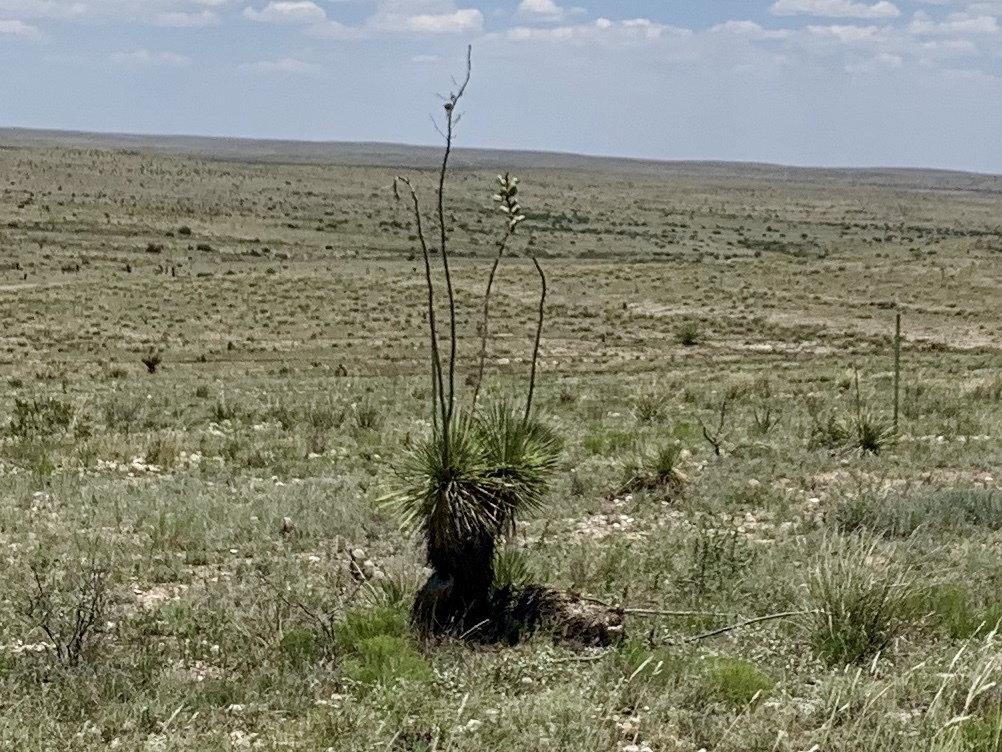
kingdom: Plantae
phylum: Tracheophyta
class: Liliopsida
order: Asparagales
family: Asparagaceae
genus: Yucca
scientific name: Yucca elata
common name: Palmella
